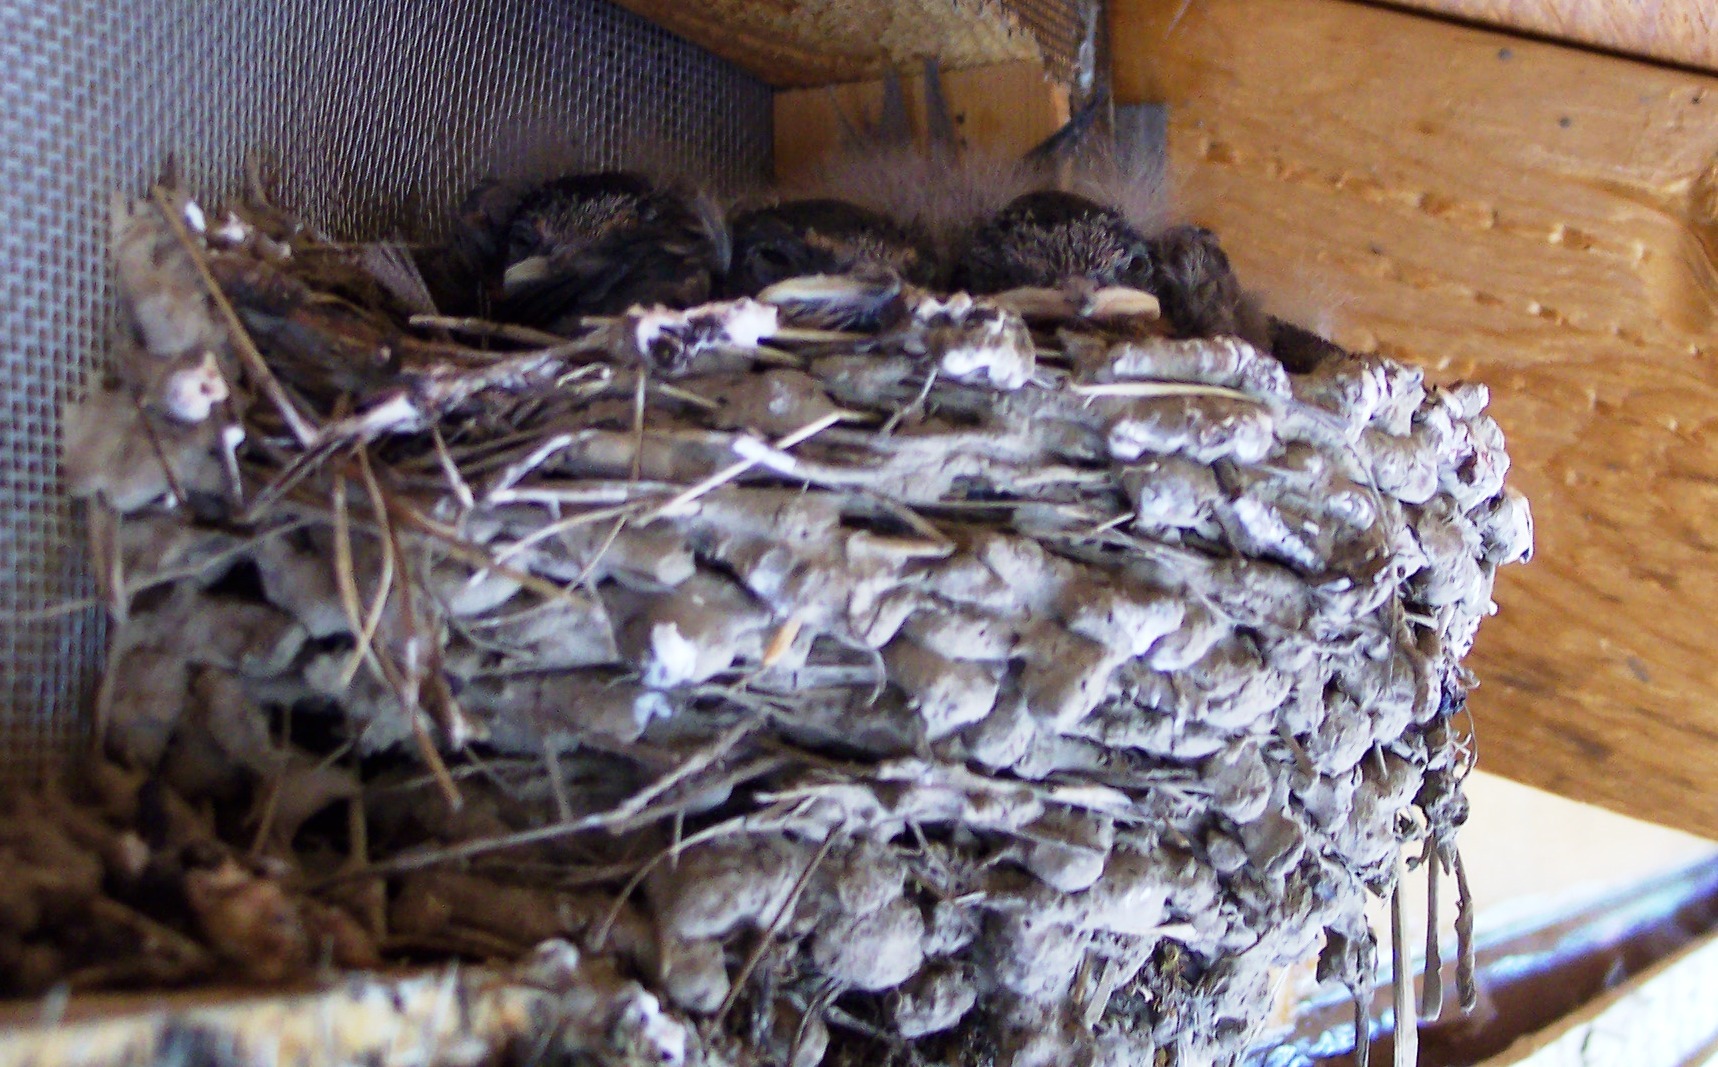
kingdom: Animalia
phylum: Chordata
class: Aves
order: Passeriformes
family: Hirundinidae
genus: Hirundo
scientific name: Hirundo rustica
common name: Barn swallow
